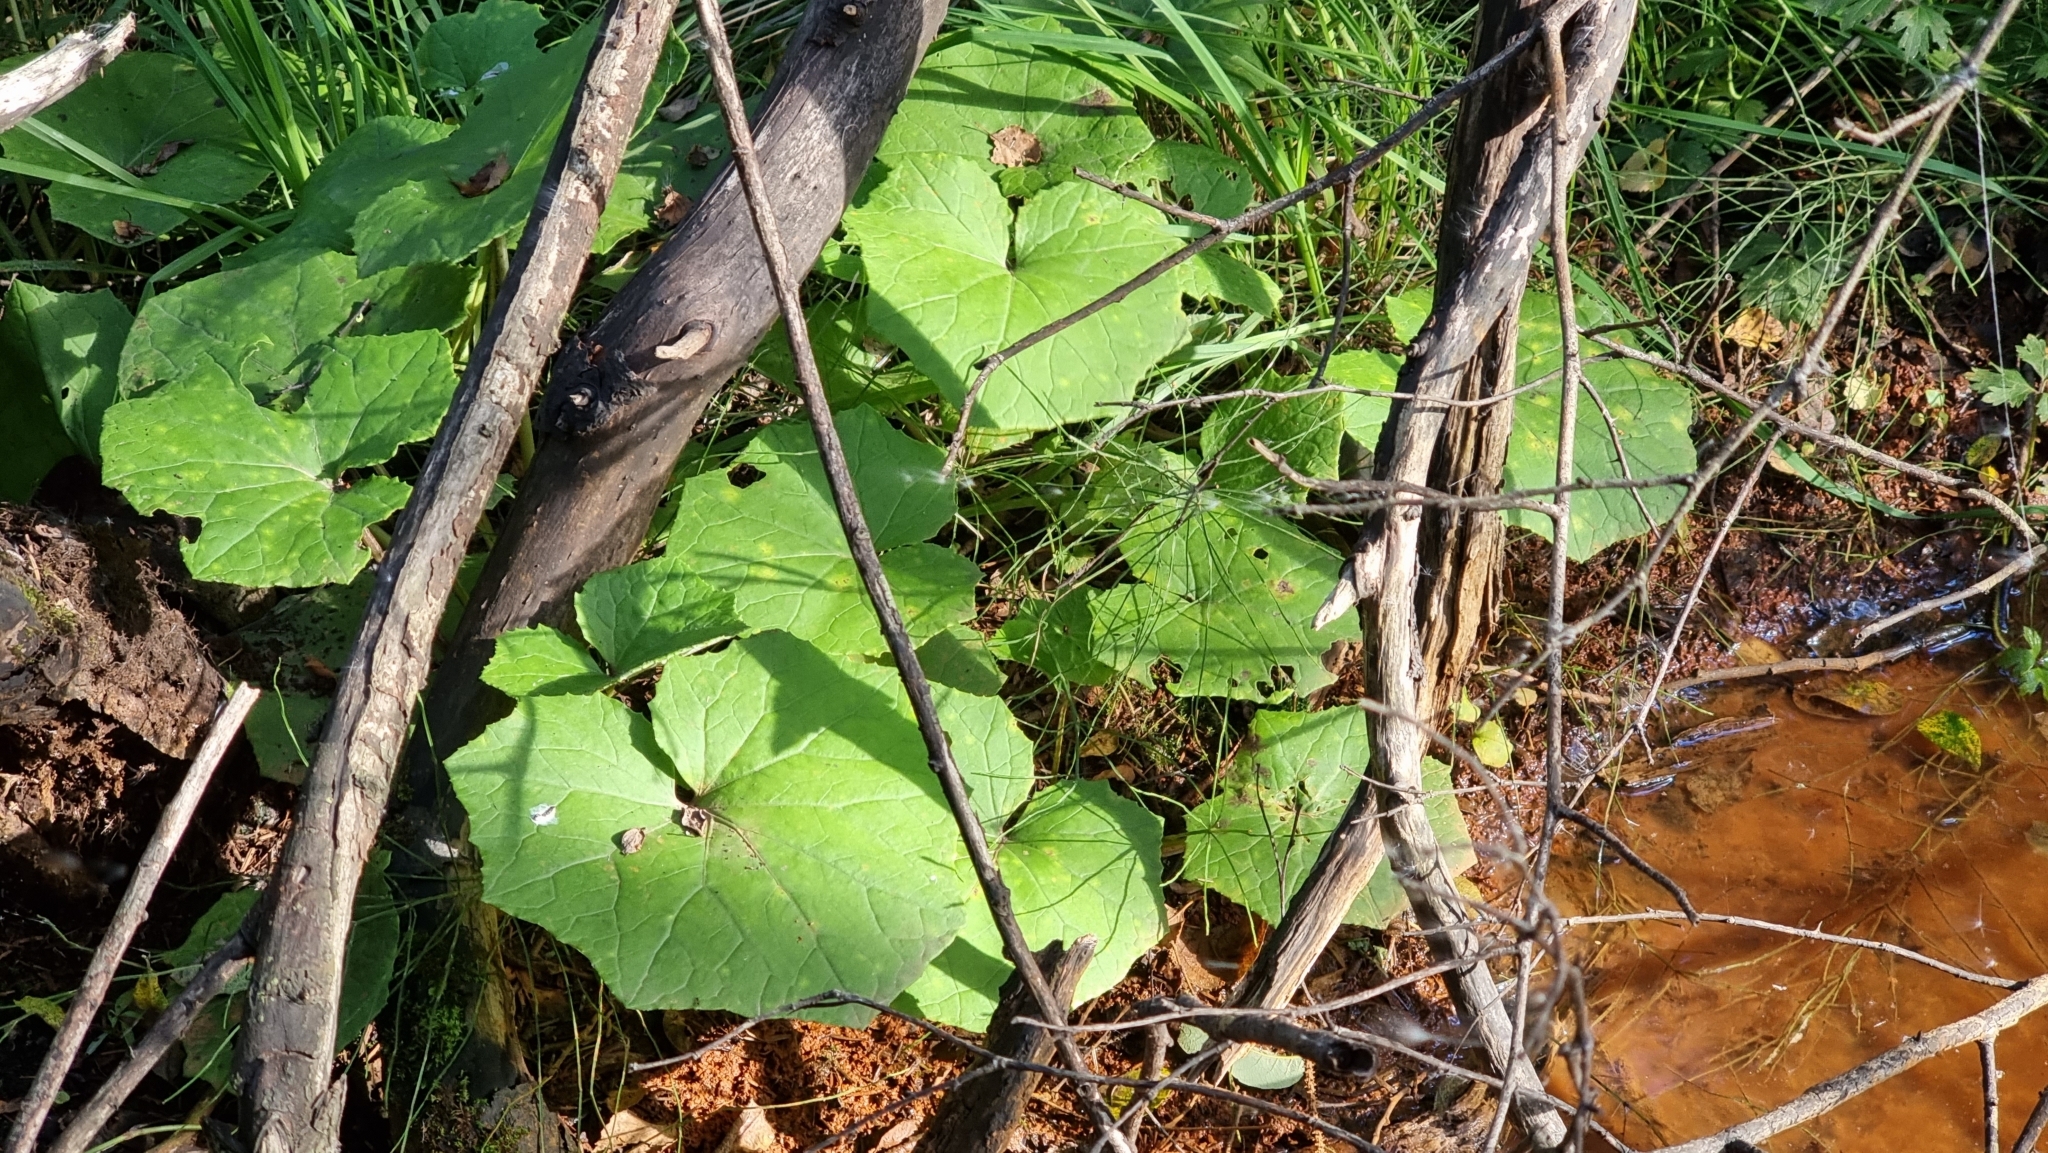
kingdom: Plantae
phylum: Tracheophyta
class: Magnoliopsida
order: Asterales
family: Asteraceae
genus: Tussilago
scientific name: Tussilago farfara
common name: Coltsfoot
